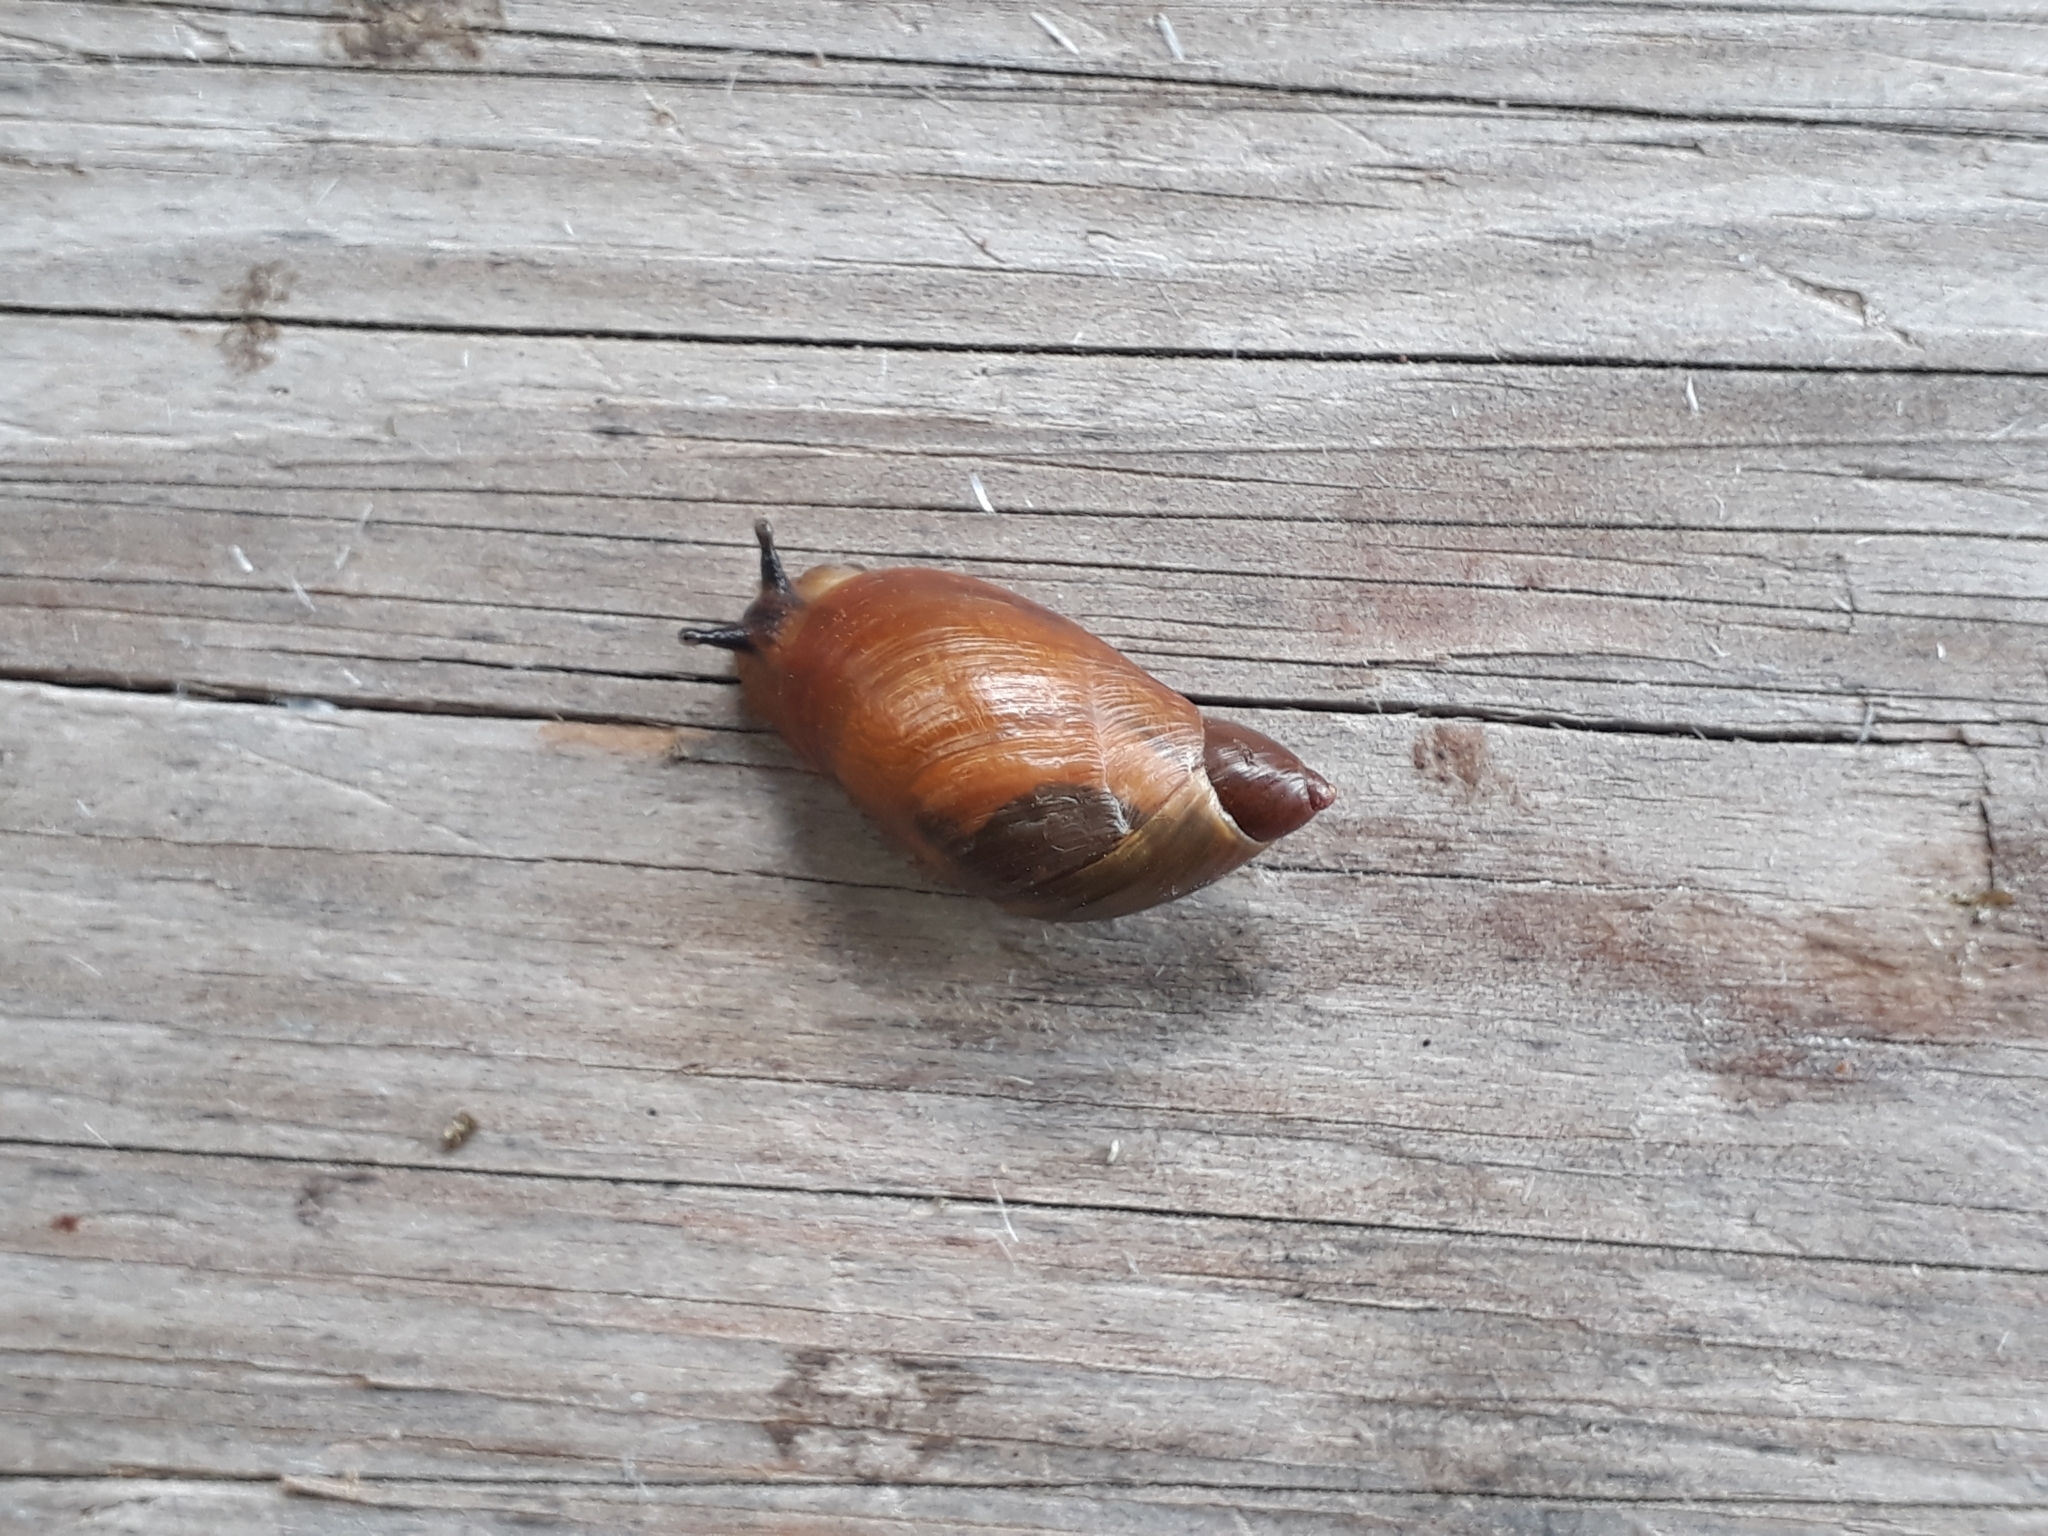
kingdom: Animalia
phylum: Mollusca
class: Gastropoda
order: Stylommatophora
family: Succineidae
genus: Succinea
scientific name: Succinea putris
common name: European ambersnail
